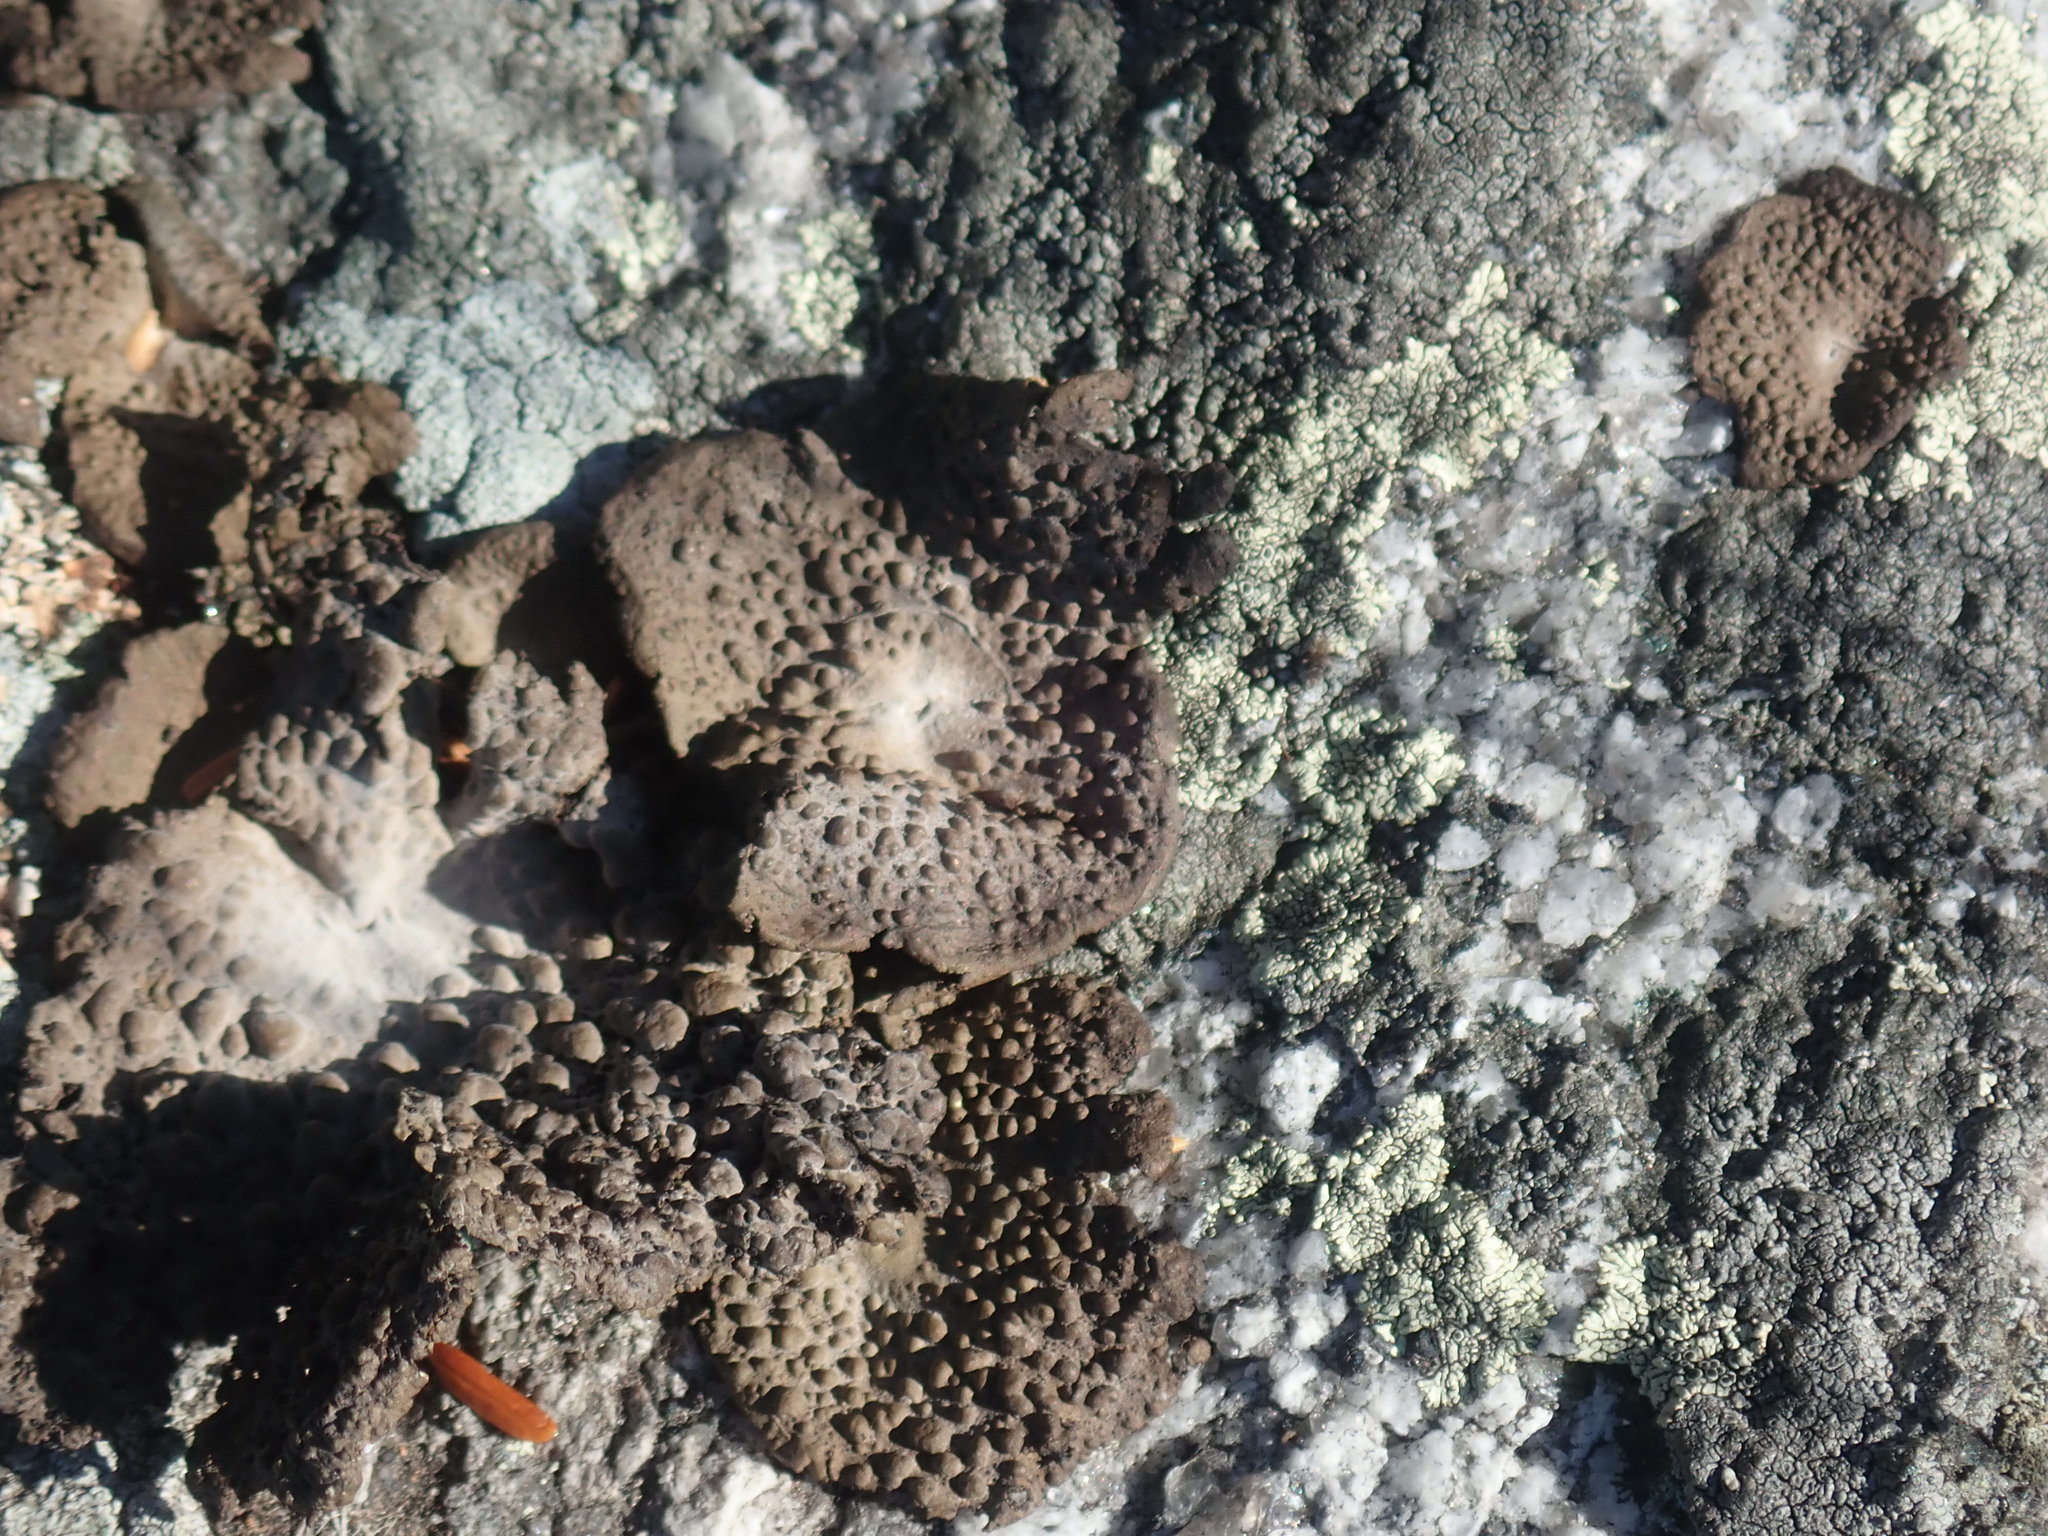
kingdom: Fungi
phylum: Ascomycota
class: Lecanoromycetes
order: Umbilicariales
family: Umbilicariaceae
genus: Lasallia
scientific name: Lasallia papulosa
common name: Common toadskin lichen
